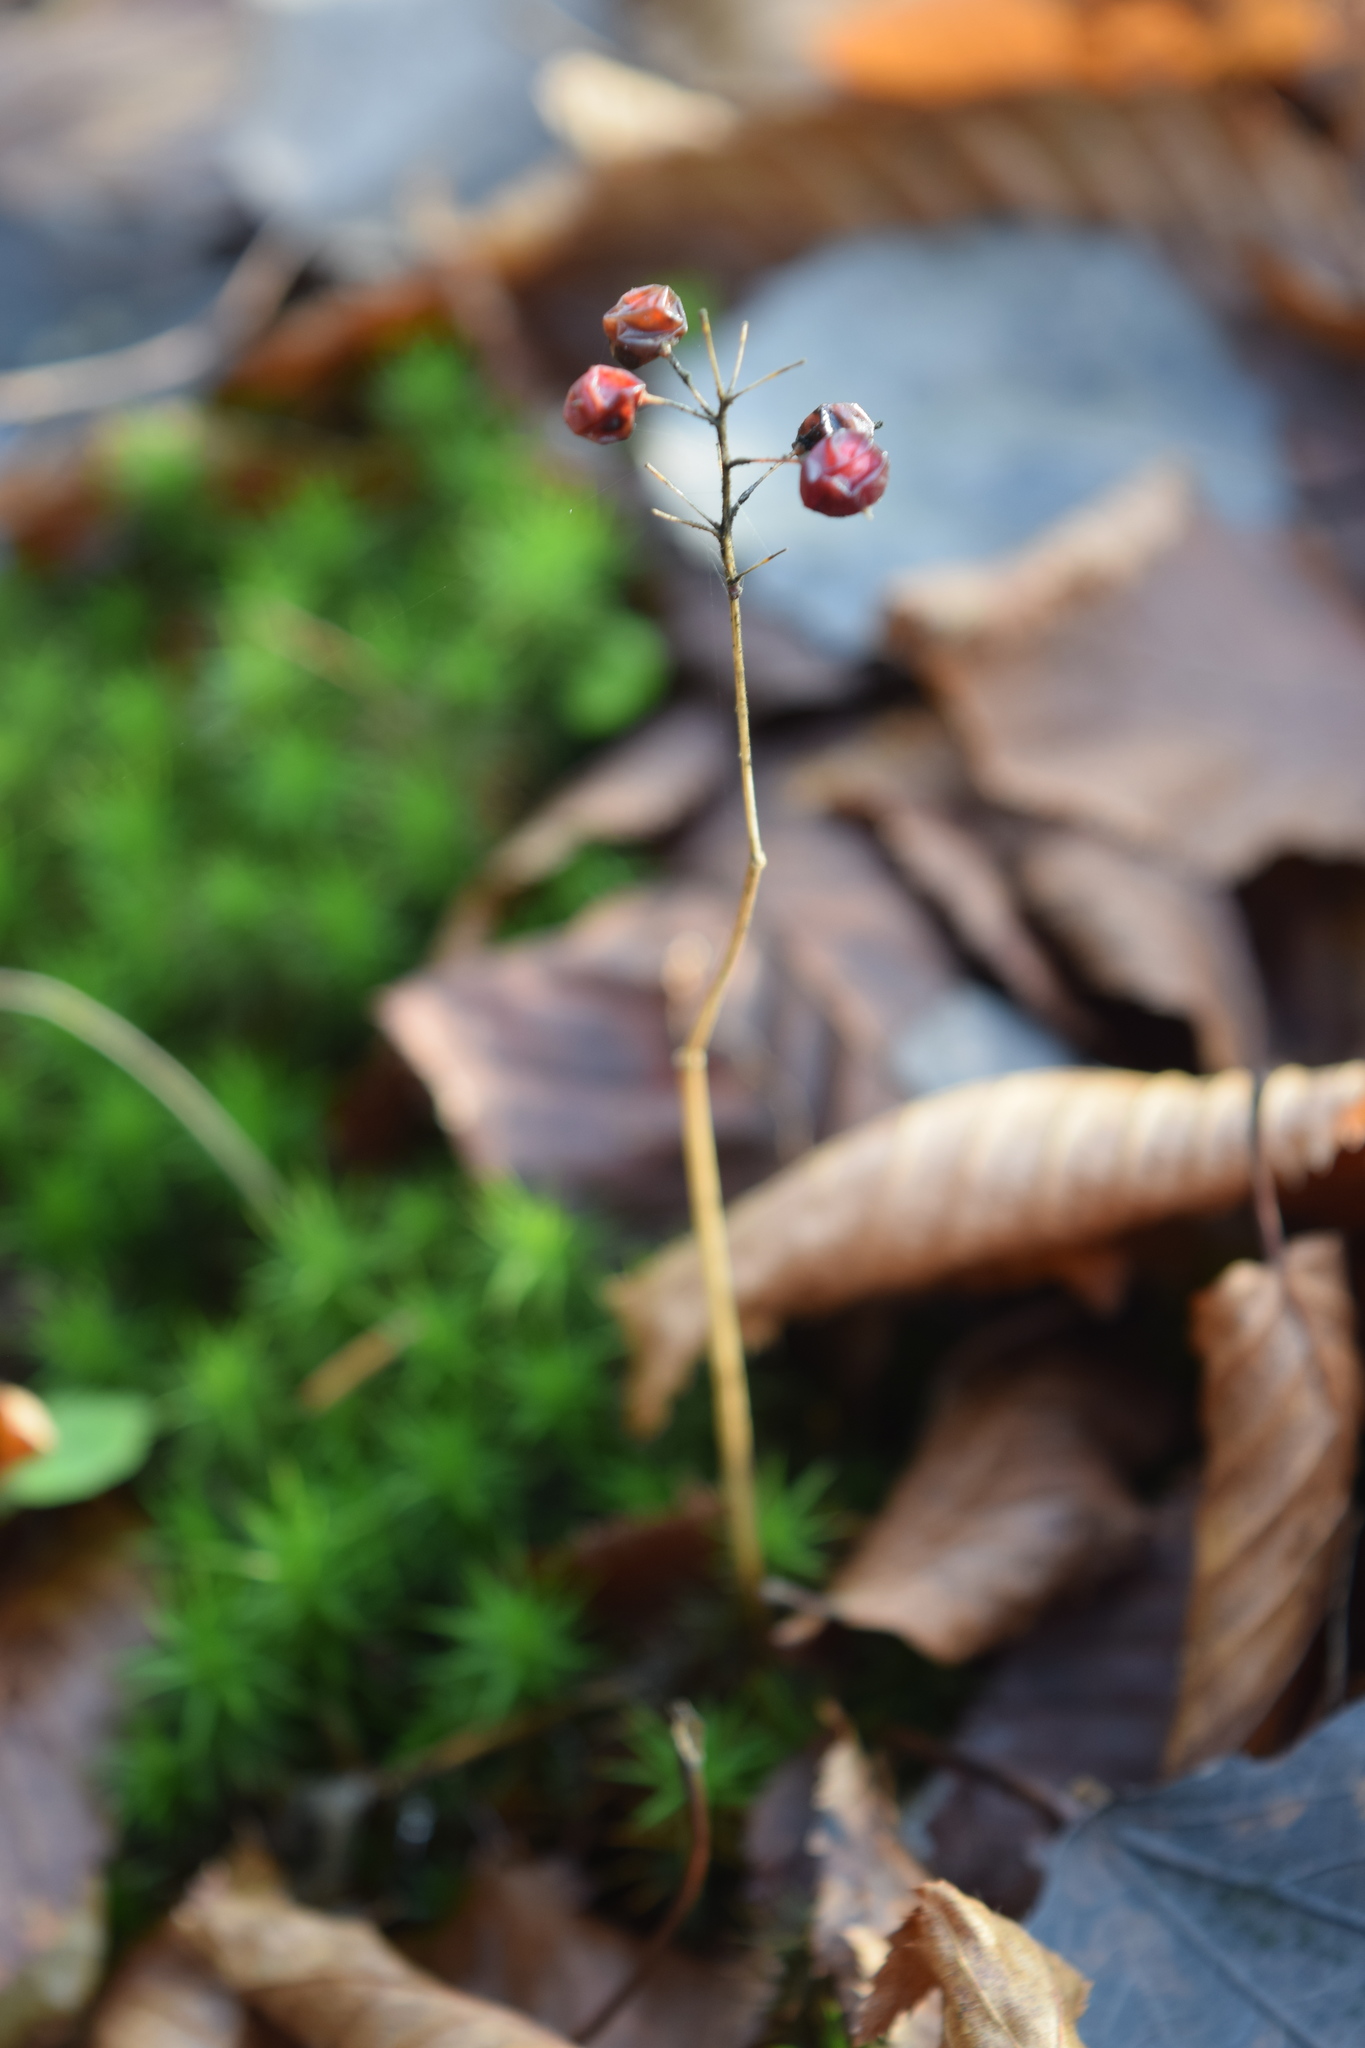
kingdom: Plantae
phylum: Tracheophyta
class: Liliopsida
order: Asparagales
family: Asparagaceae
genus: Maianthemum
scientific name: Maianthemum bifolium
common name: May lily
